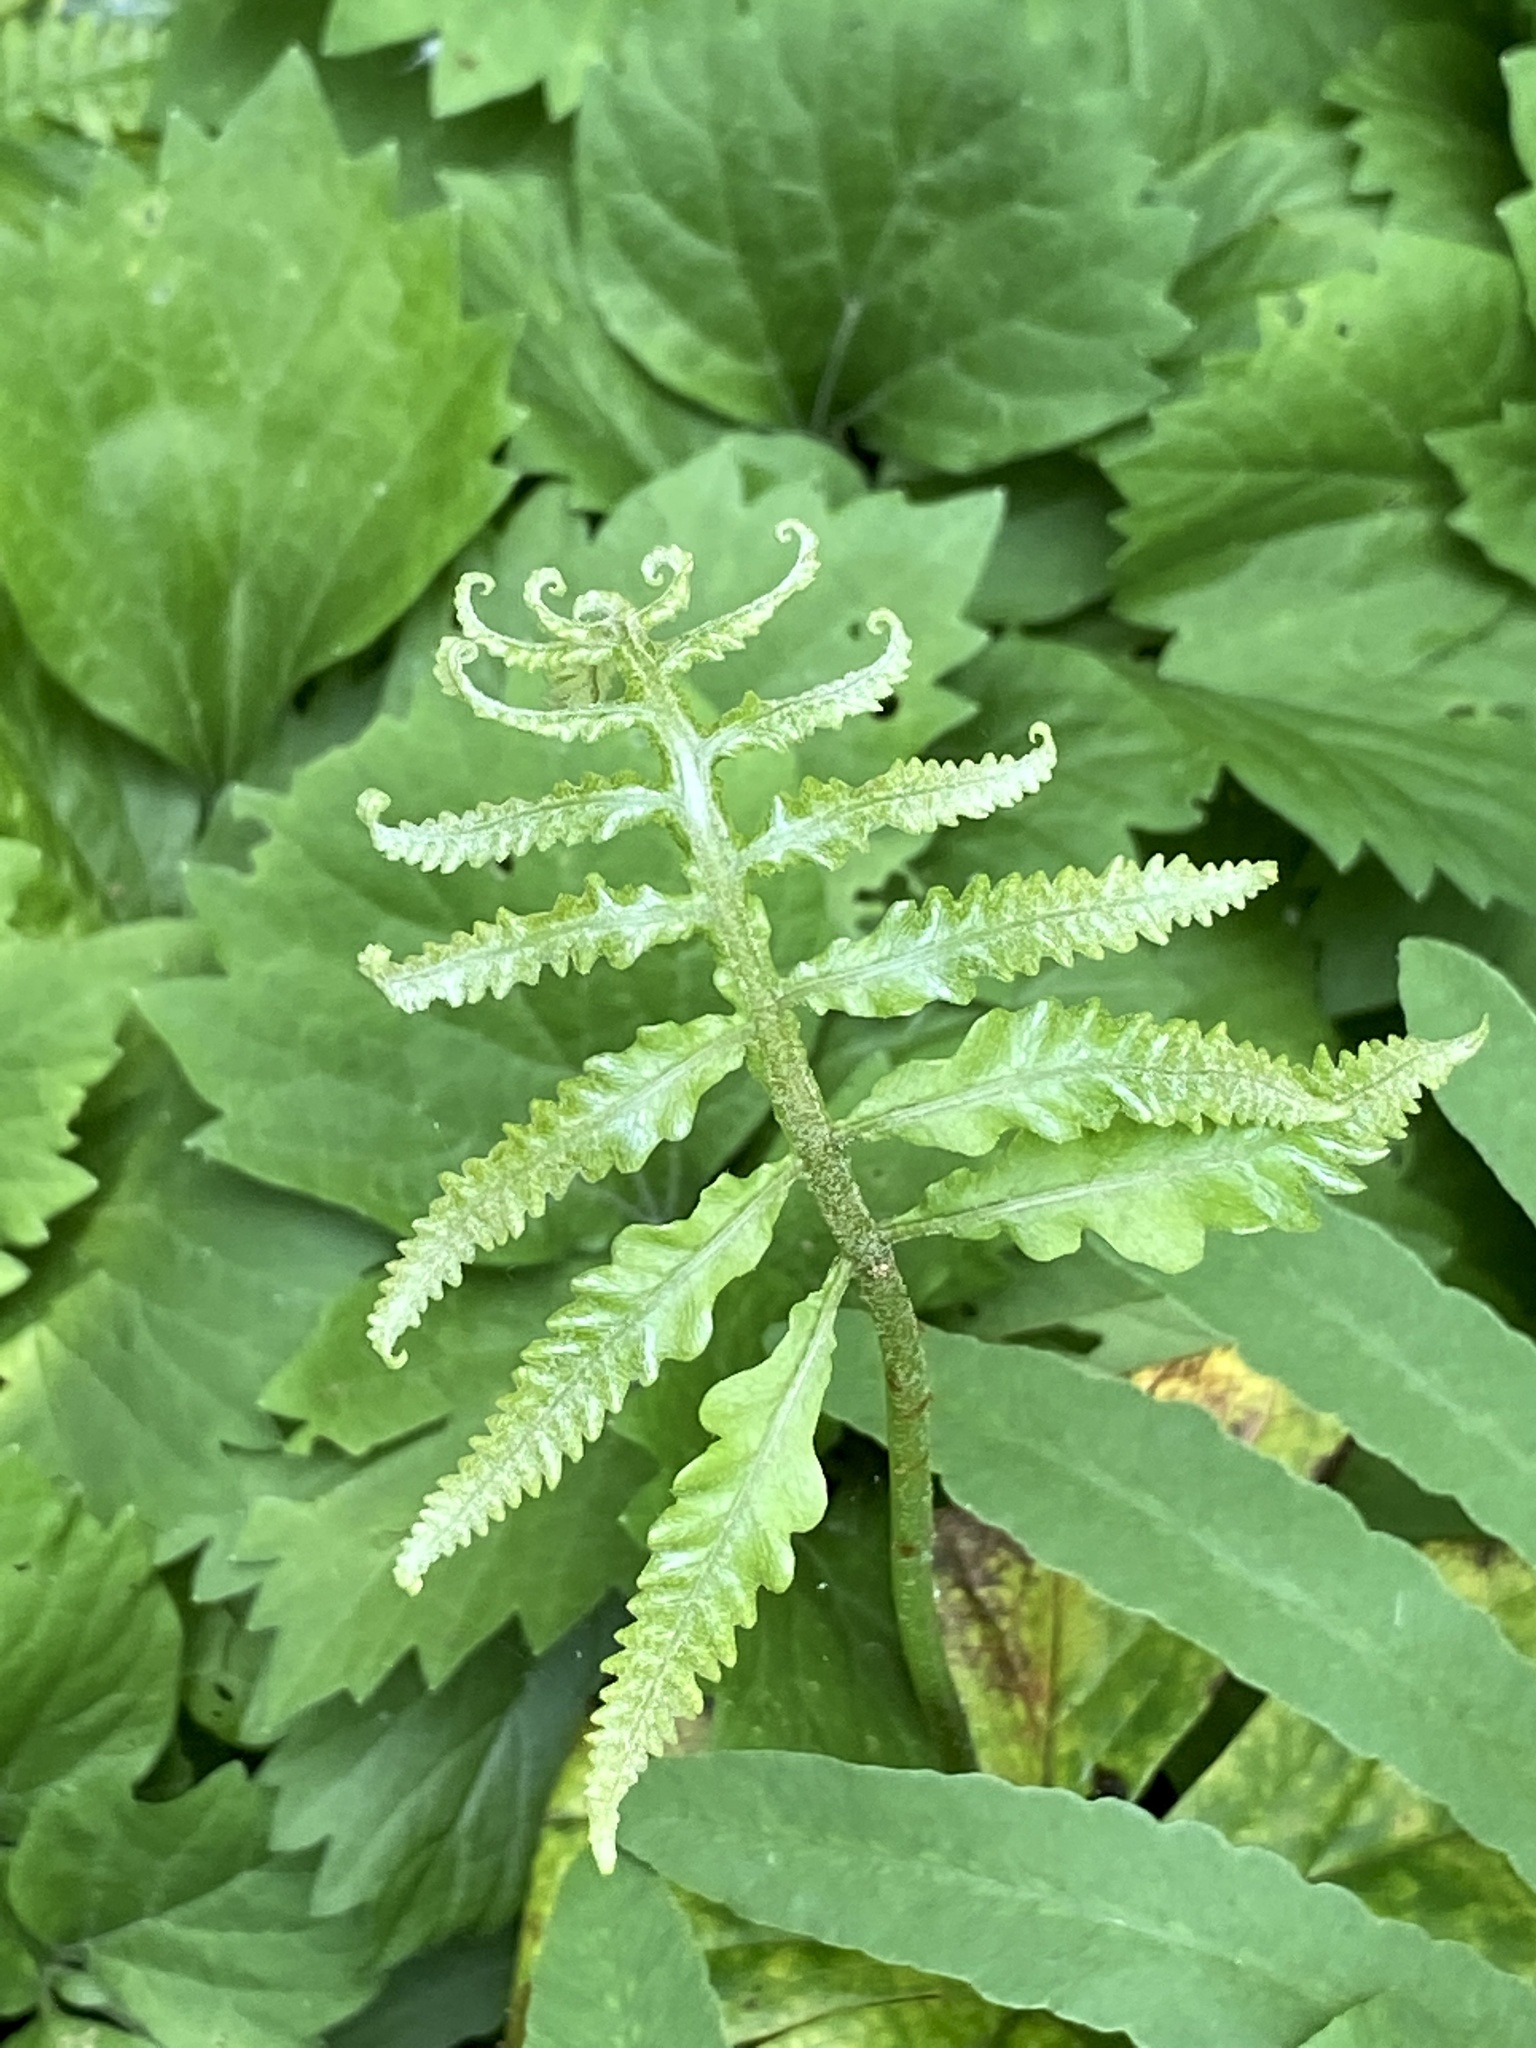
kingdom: Plantae
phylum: Tracheophyta
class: Polypodiopsida
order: Polypodiales
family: Onocleaceae
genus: Onoclea
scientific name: Onoclea sensibilis
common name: Sensitive fern
